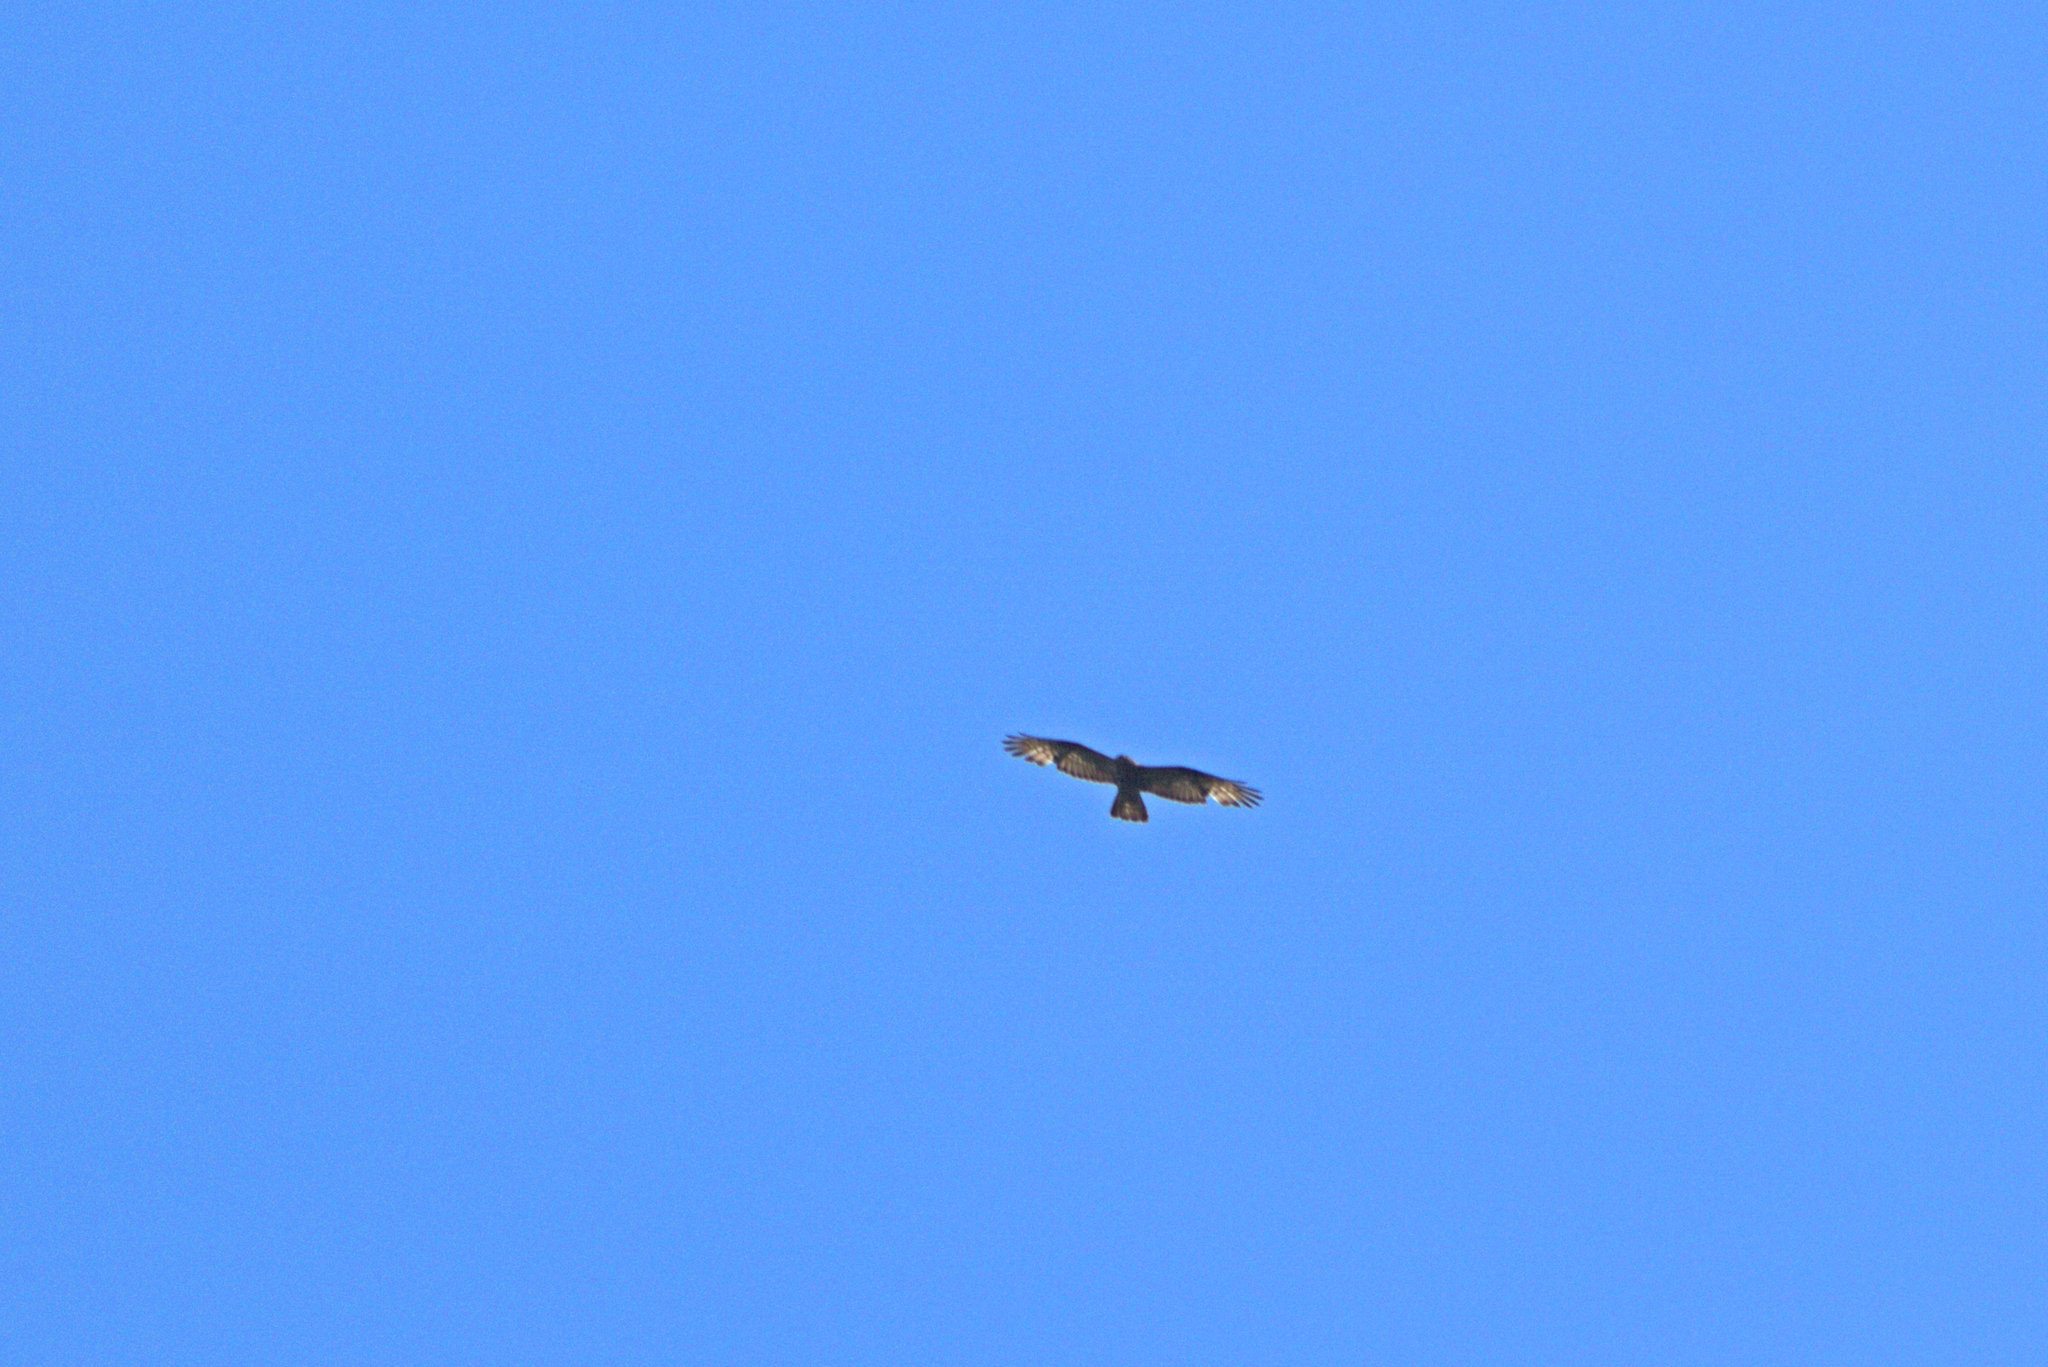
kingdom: Animalia
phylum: Chordata
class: Aves
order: Accipitriformes
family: Accipitridae
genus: Pernis
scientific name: Pernis apivorus
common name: European honey buzzard
